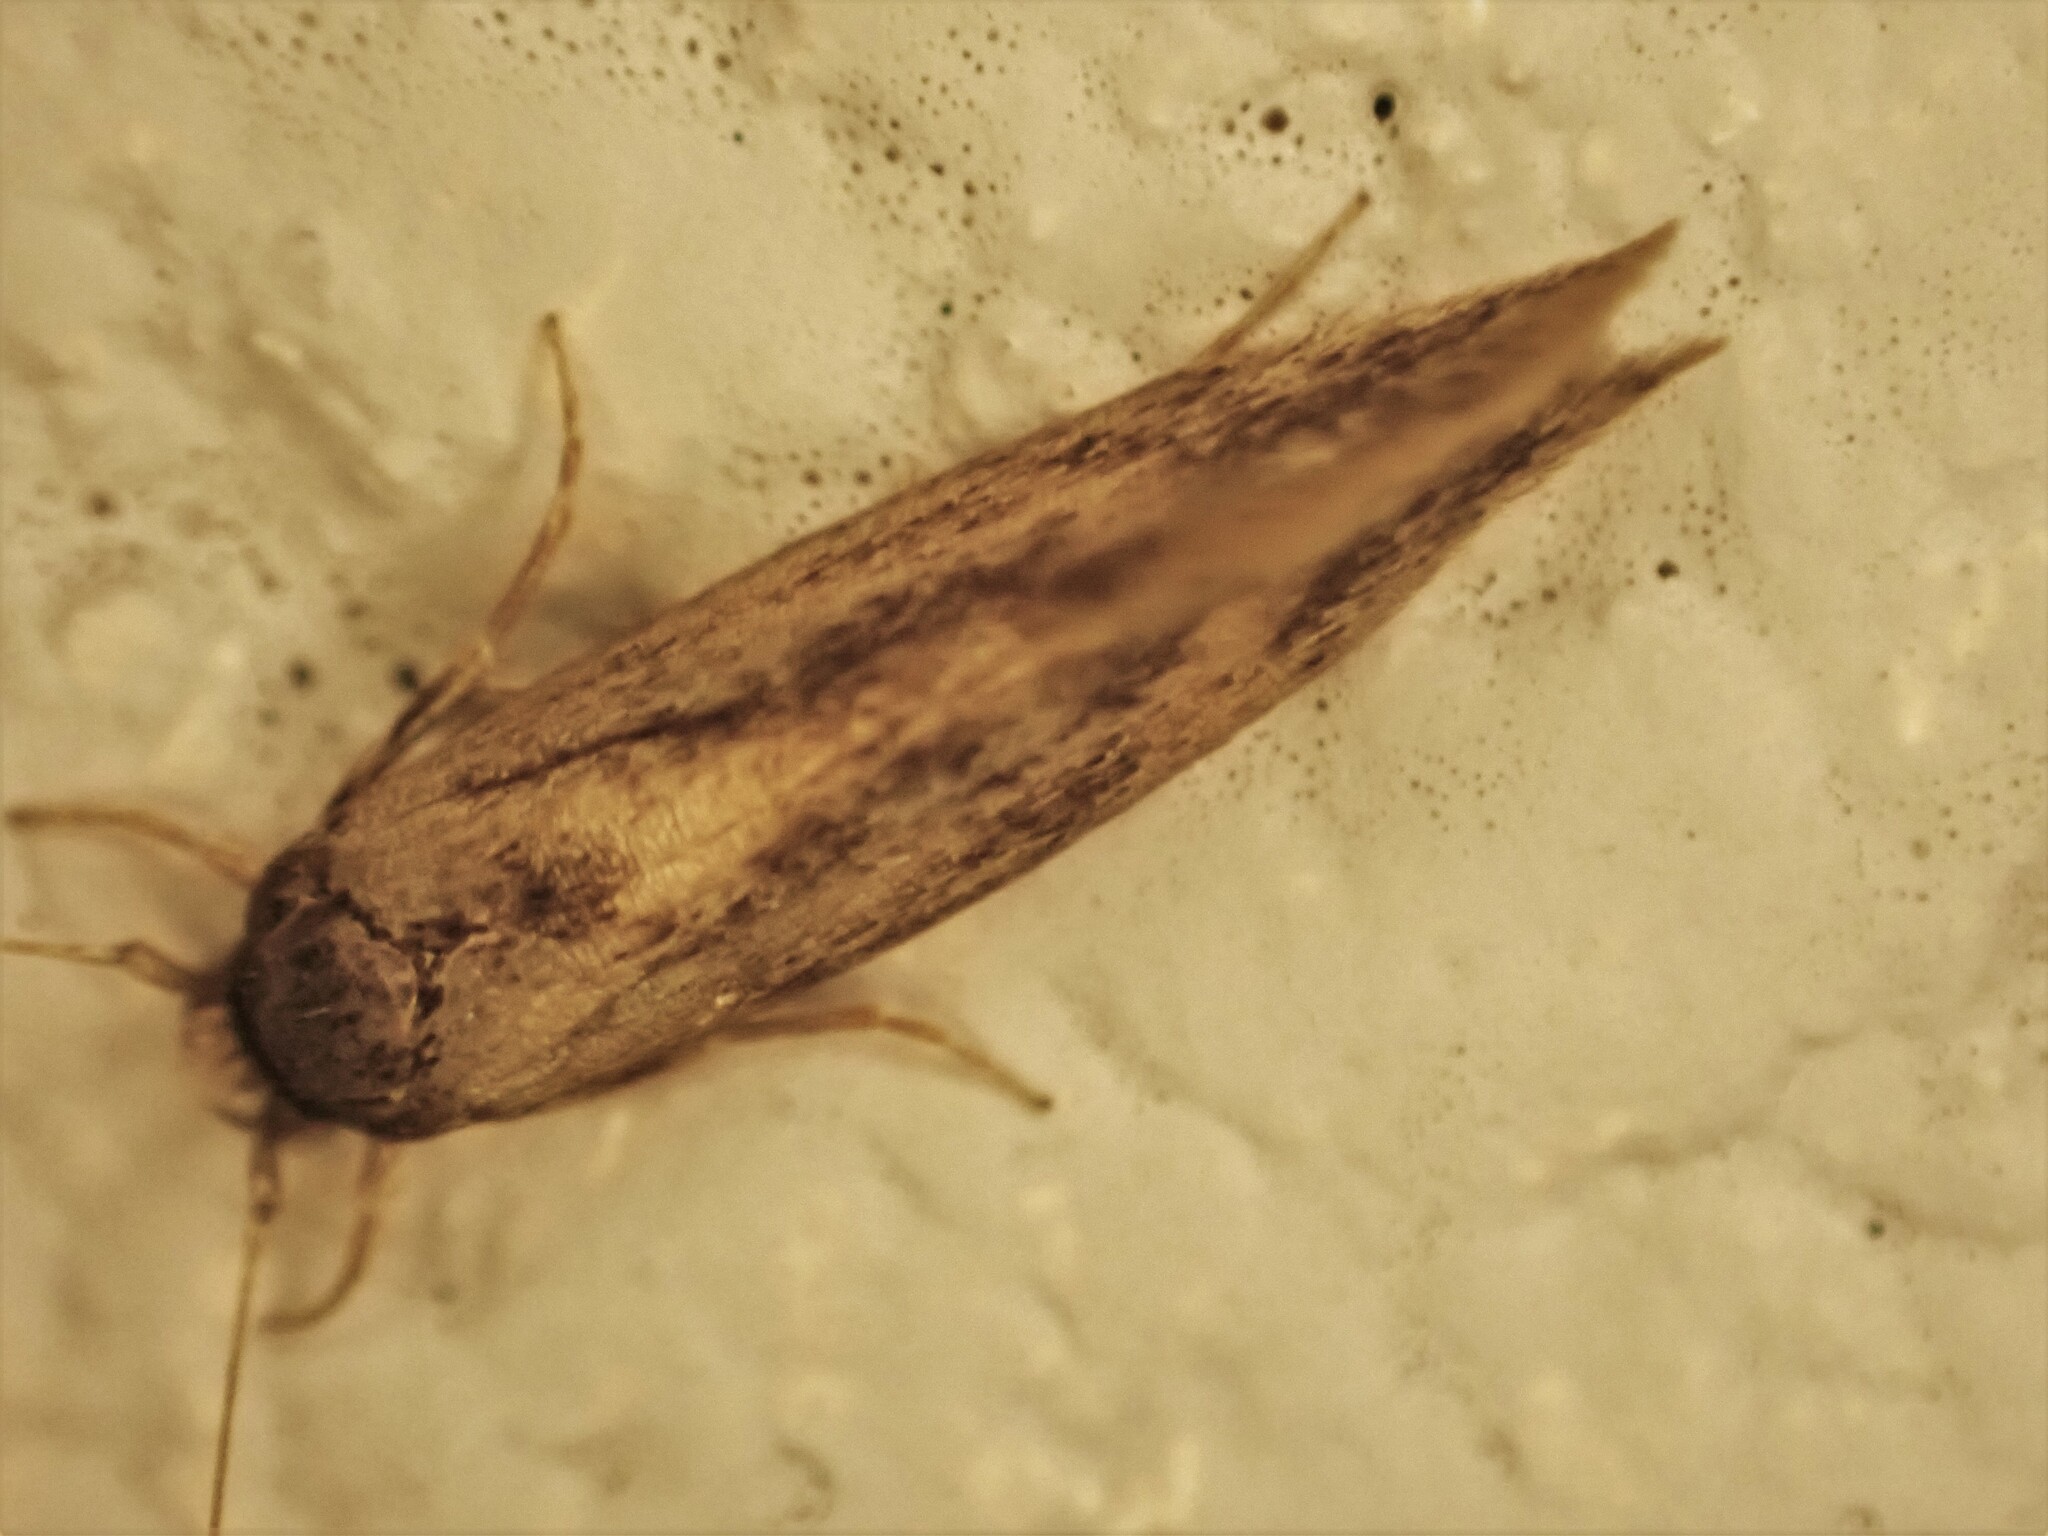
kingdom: Animalia
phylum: Arthropoda
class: Insecta
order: Lepidoptera
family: Tineidae
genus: Opogona
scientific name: Opogona omoscopa
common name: Moth
